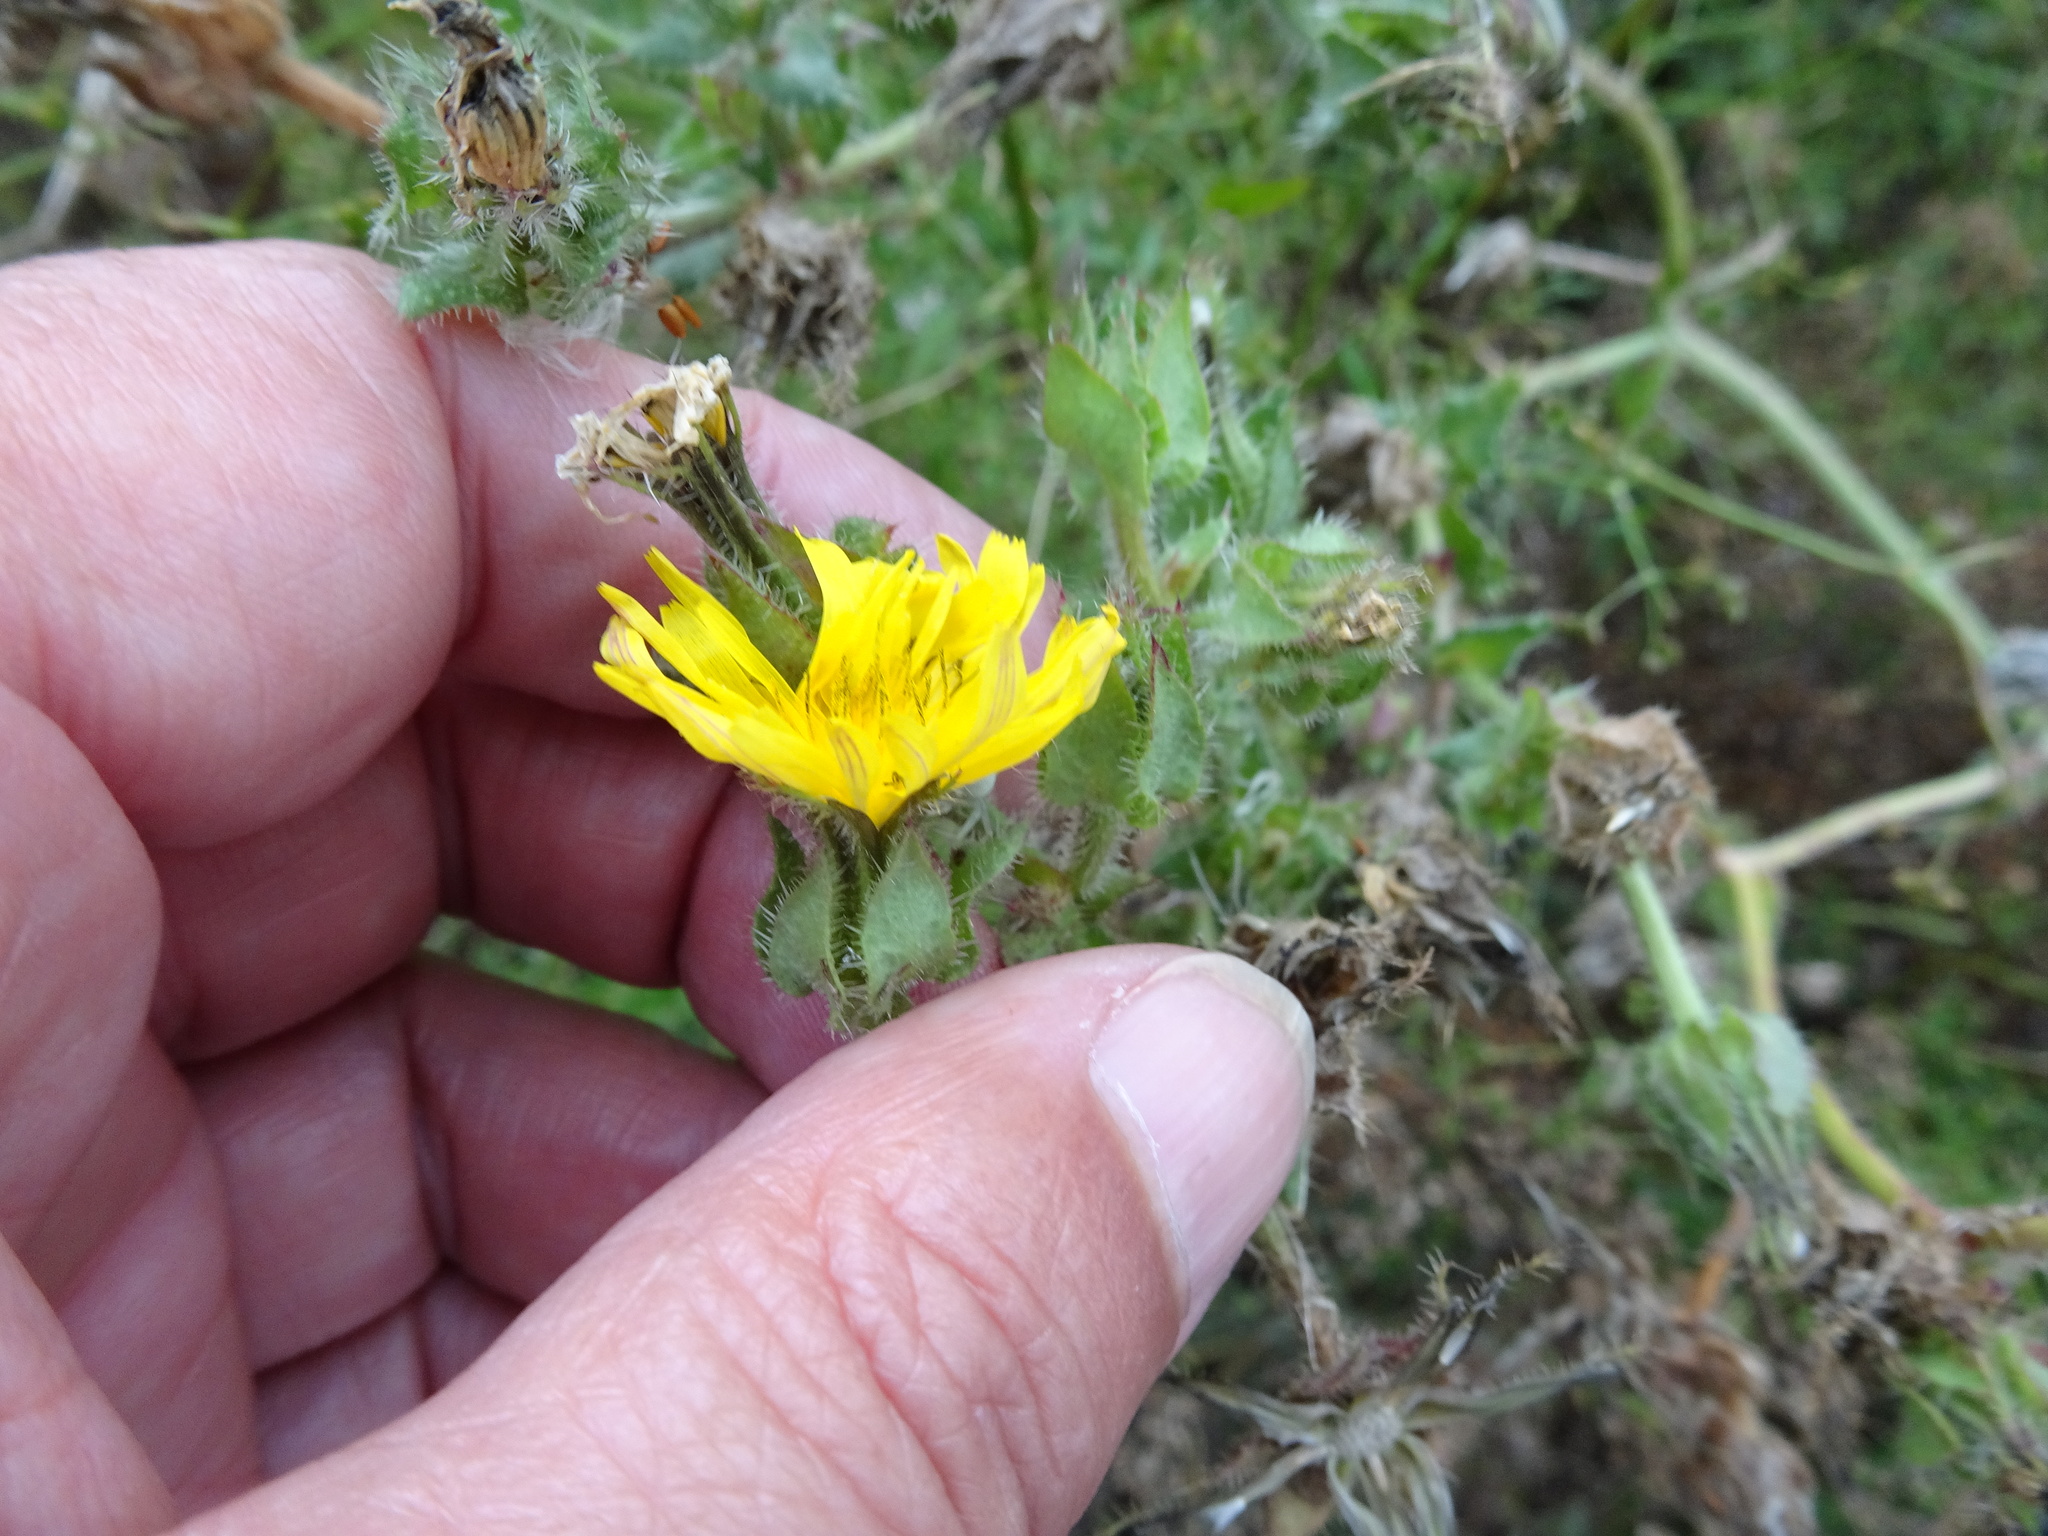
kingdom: Plantae
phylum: Tracheophyta
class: Magnoliopsida
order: Asterales
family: Asteraceae
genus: Helminthotheca
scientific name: Helminthotheca echioides
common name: Ox-tongue
